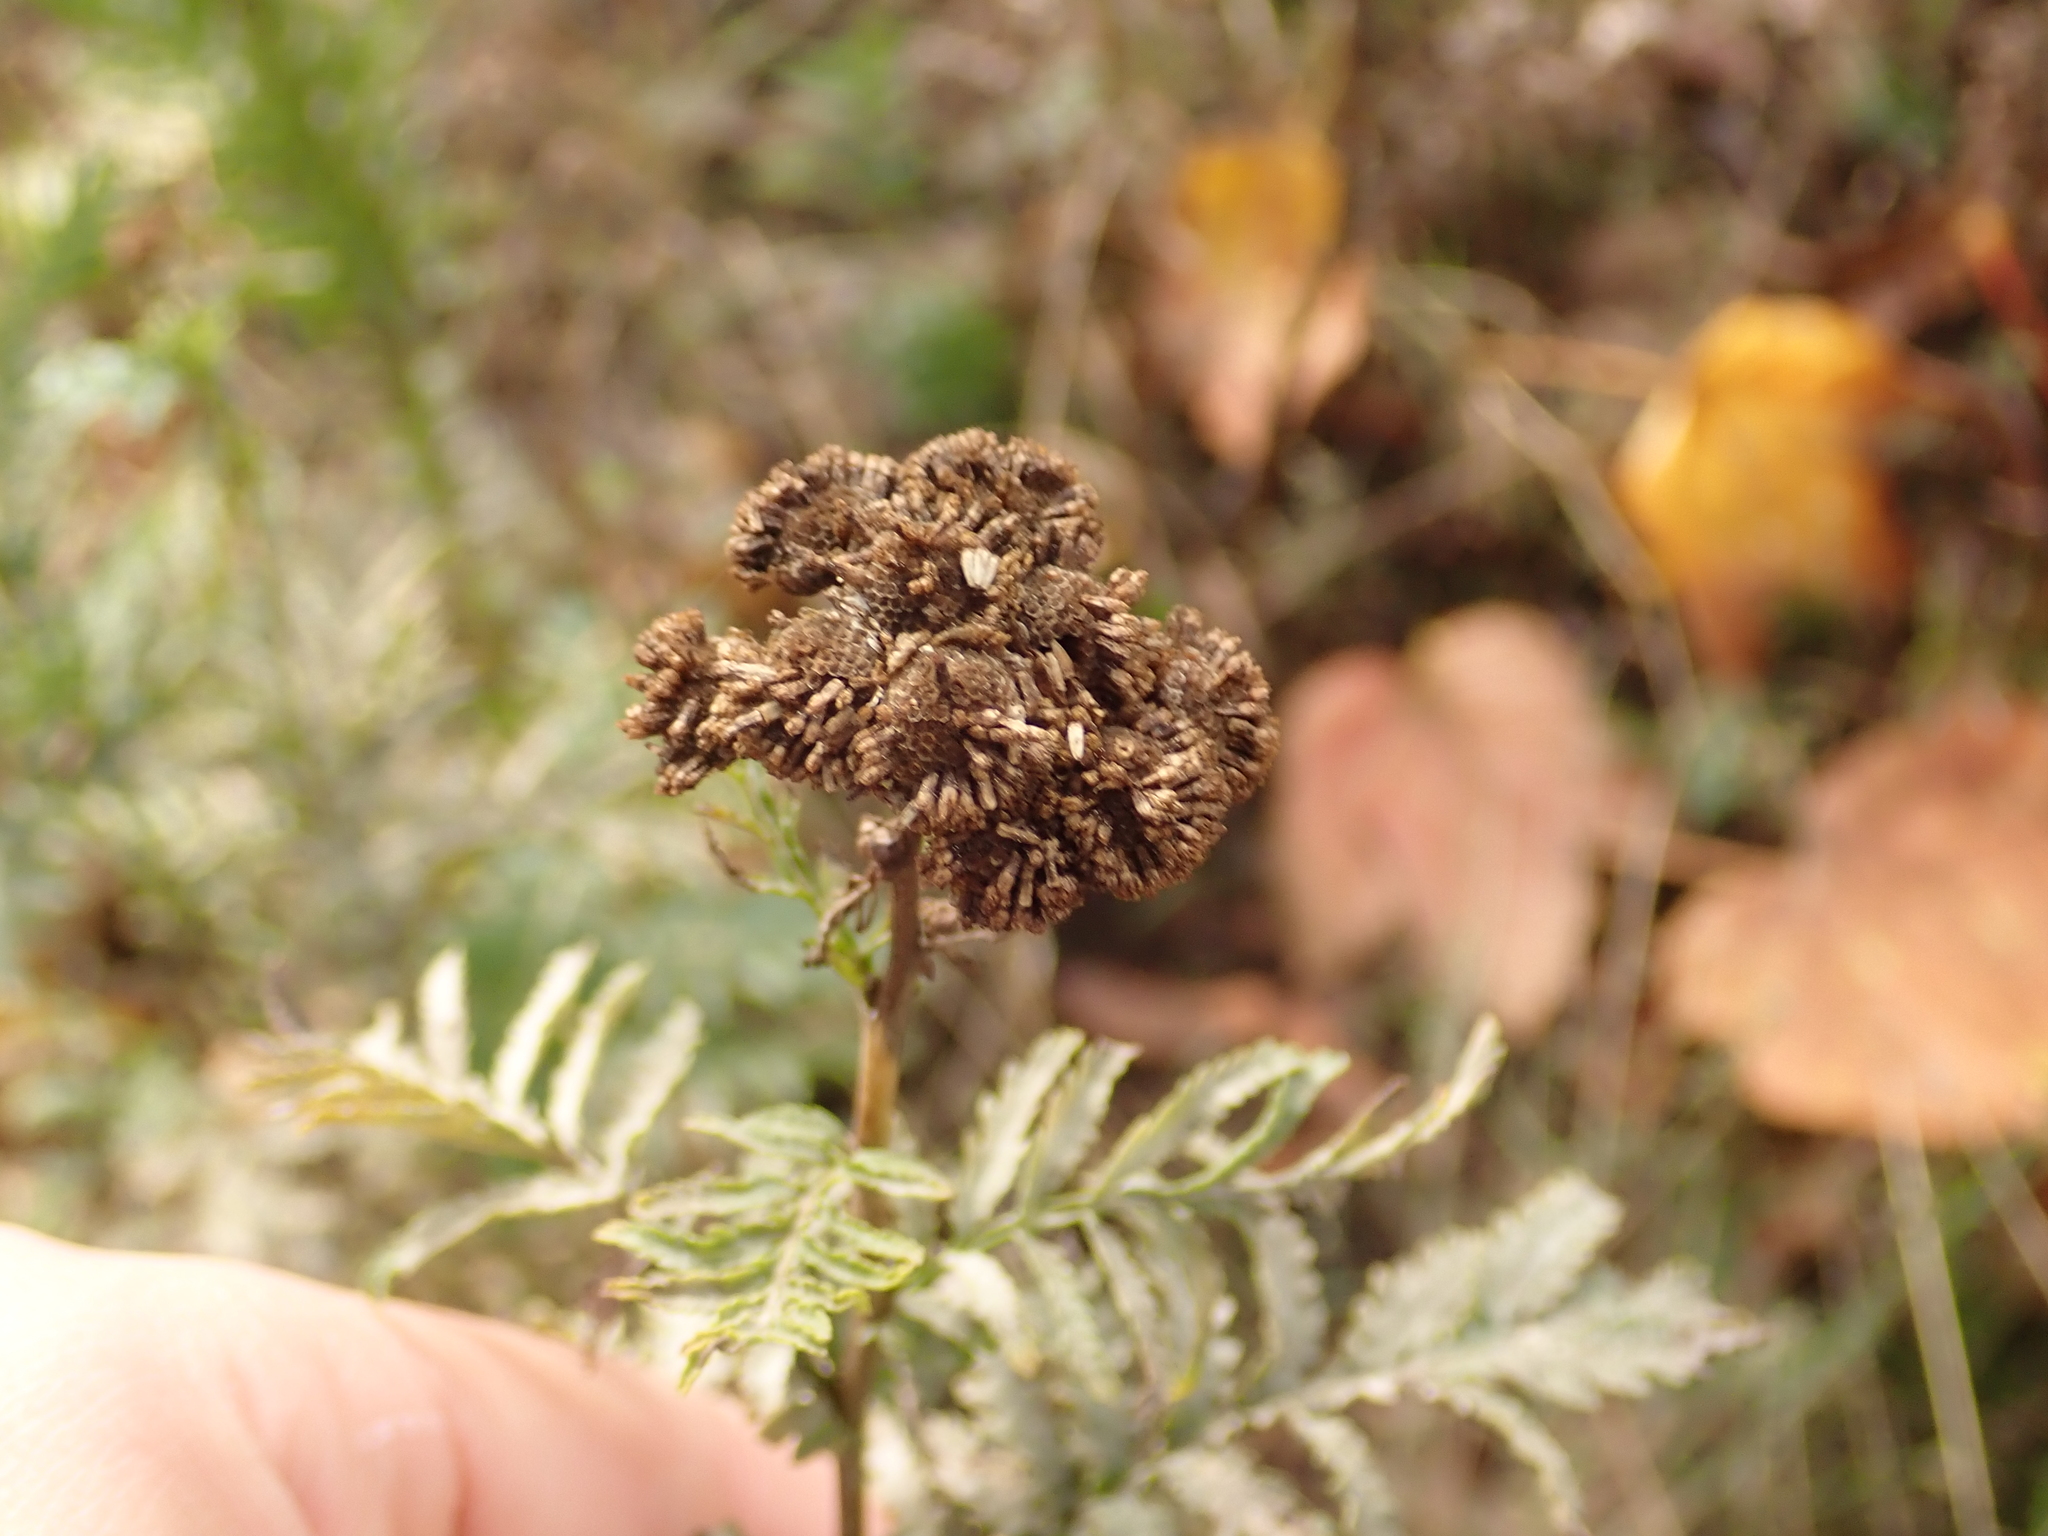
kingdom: Plantae
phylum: Tracheophyta
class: Magnoliopsida
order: Asterales
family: Asteraceae
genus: Tanacetum
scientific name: Tanacetum vulgare
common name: Common tansy
